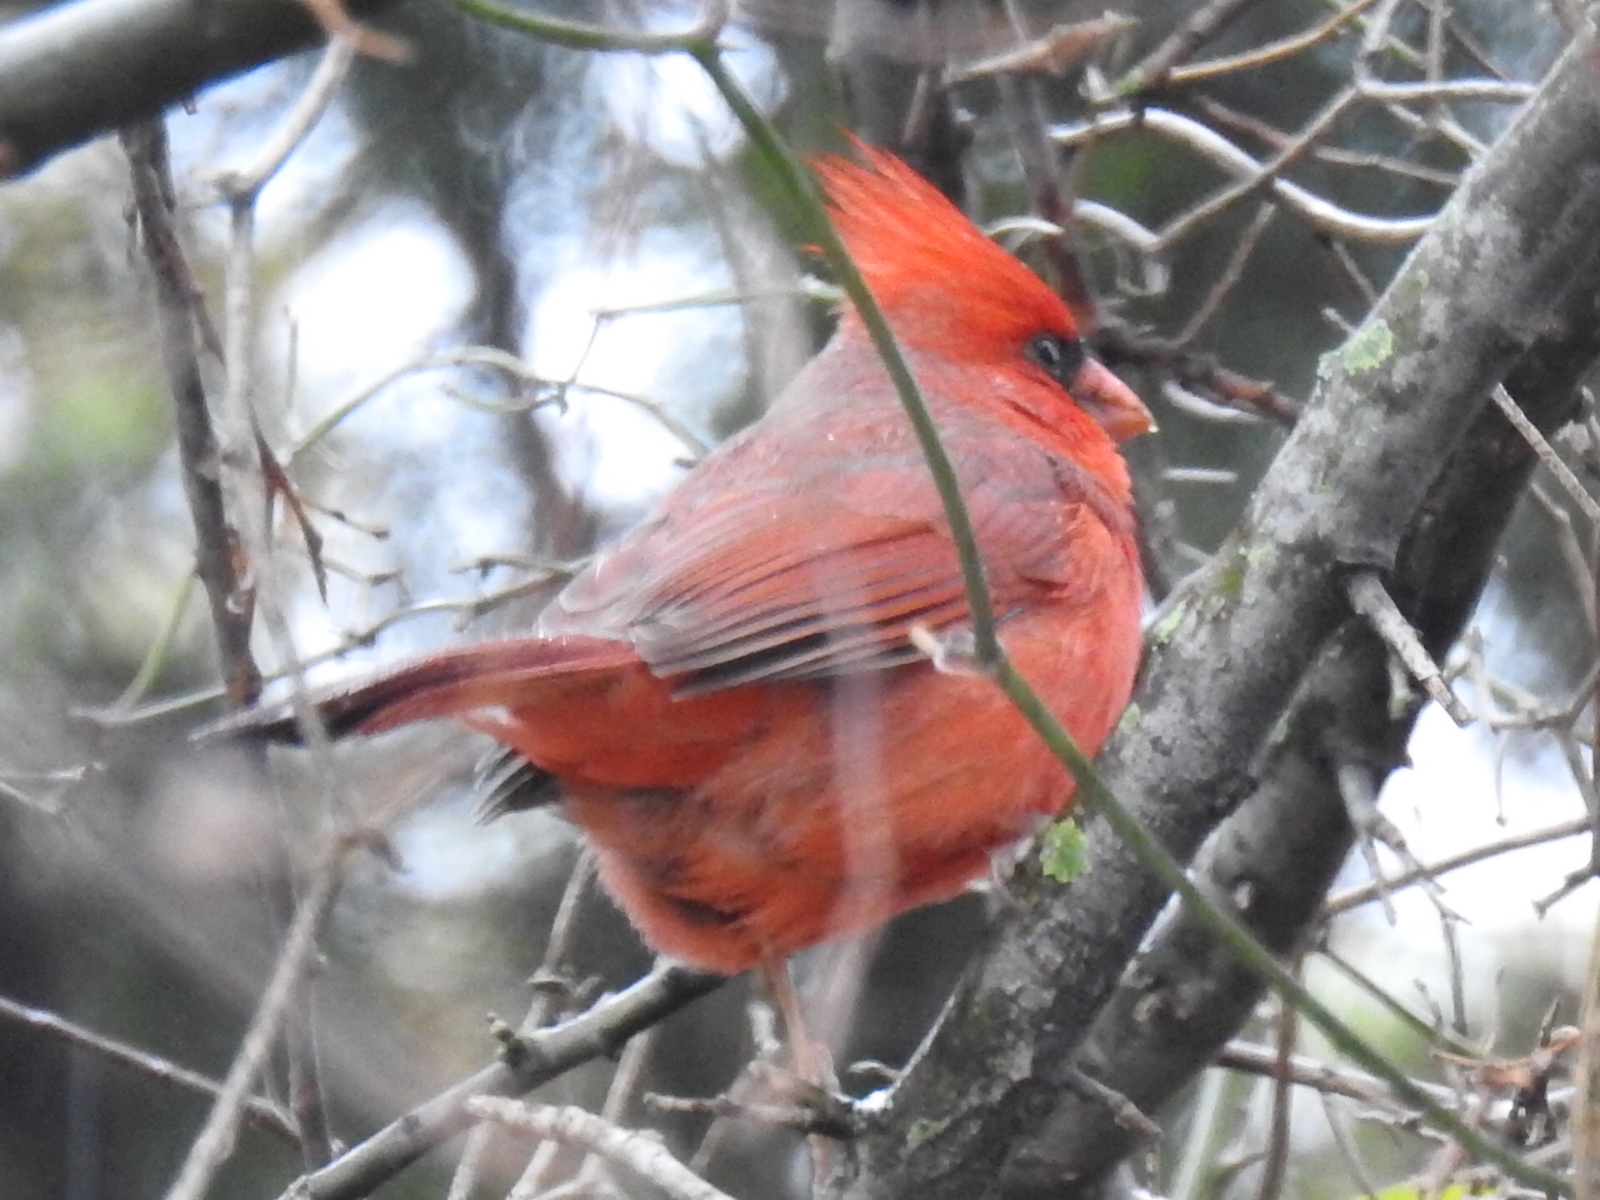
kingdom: Animalia
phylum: Chordata
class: Aves
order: Passeriformes
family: Cardinalidae
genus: Cardinalis
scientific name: Cardinalis cardinalis
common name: Northern cardinal
